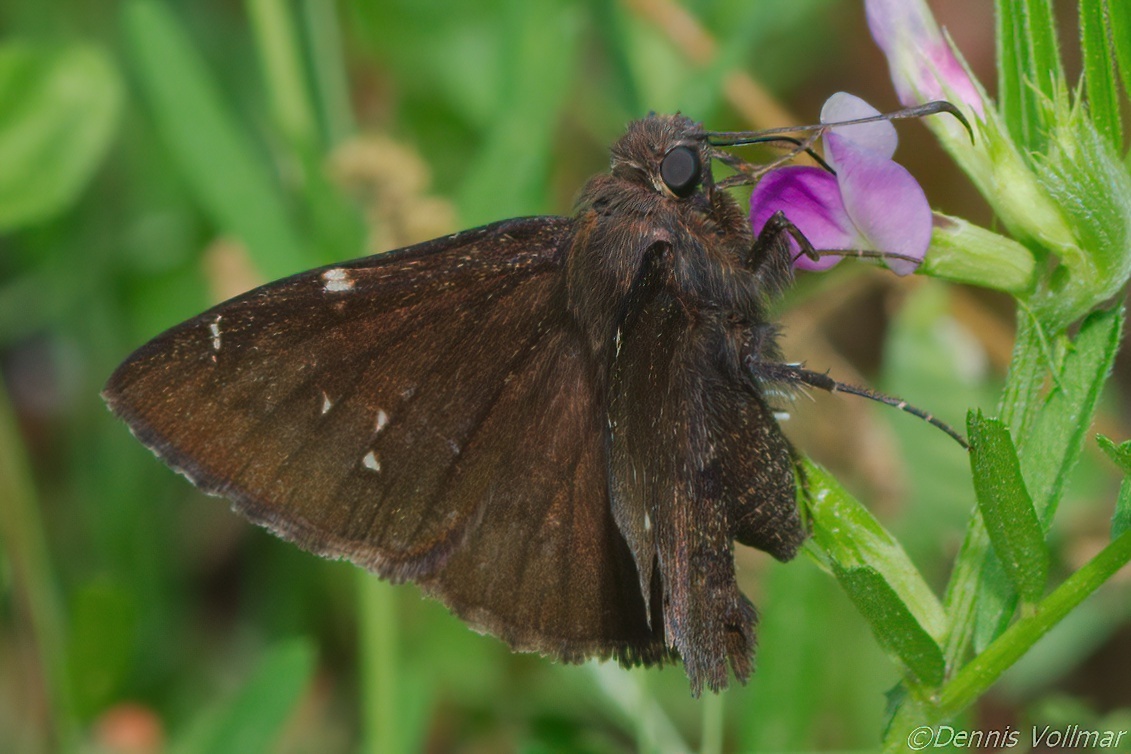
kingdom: Animalia
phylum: Arthropoda
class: Insecta
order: Lepidoptera
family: Hesperiidae
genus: Thorybes
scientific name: Thorybes pylades
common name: Northern cloudywing
